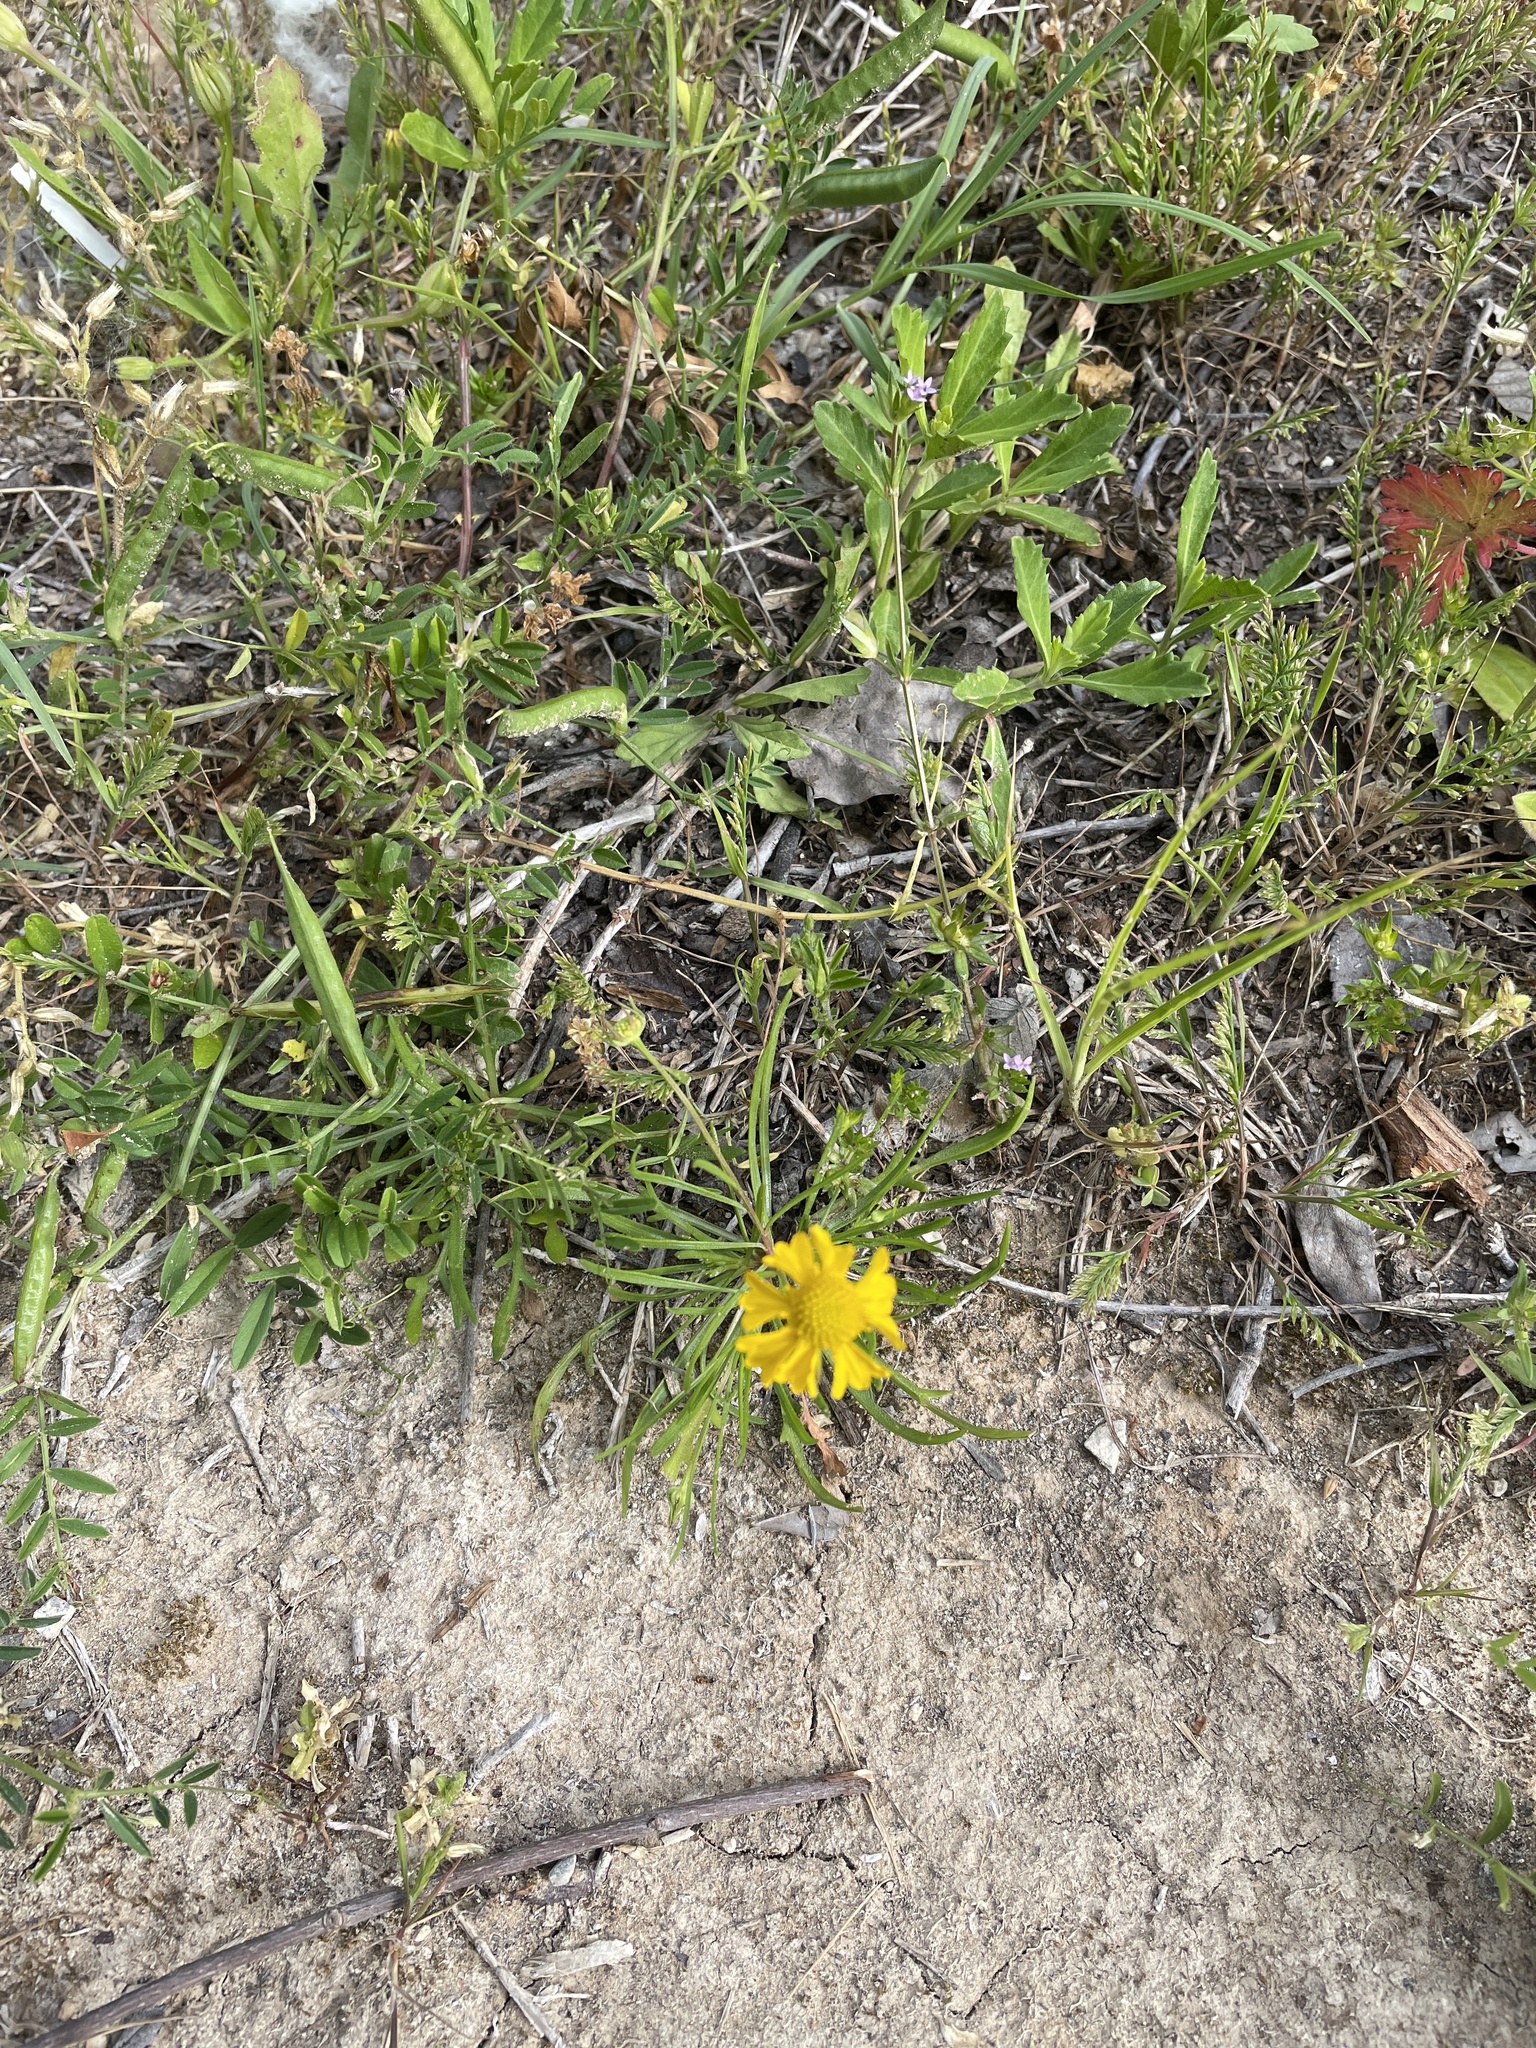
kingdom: Plantae
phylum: Tracheophyta
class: Magnoliopsida
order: Asterales
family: Asteraceae
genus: Helenium
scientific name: Helenium amarum
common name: Bitter sneezeweed
